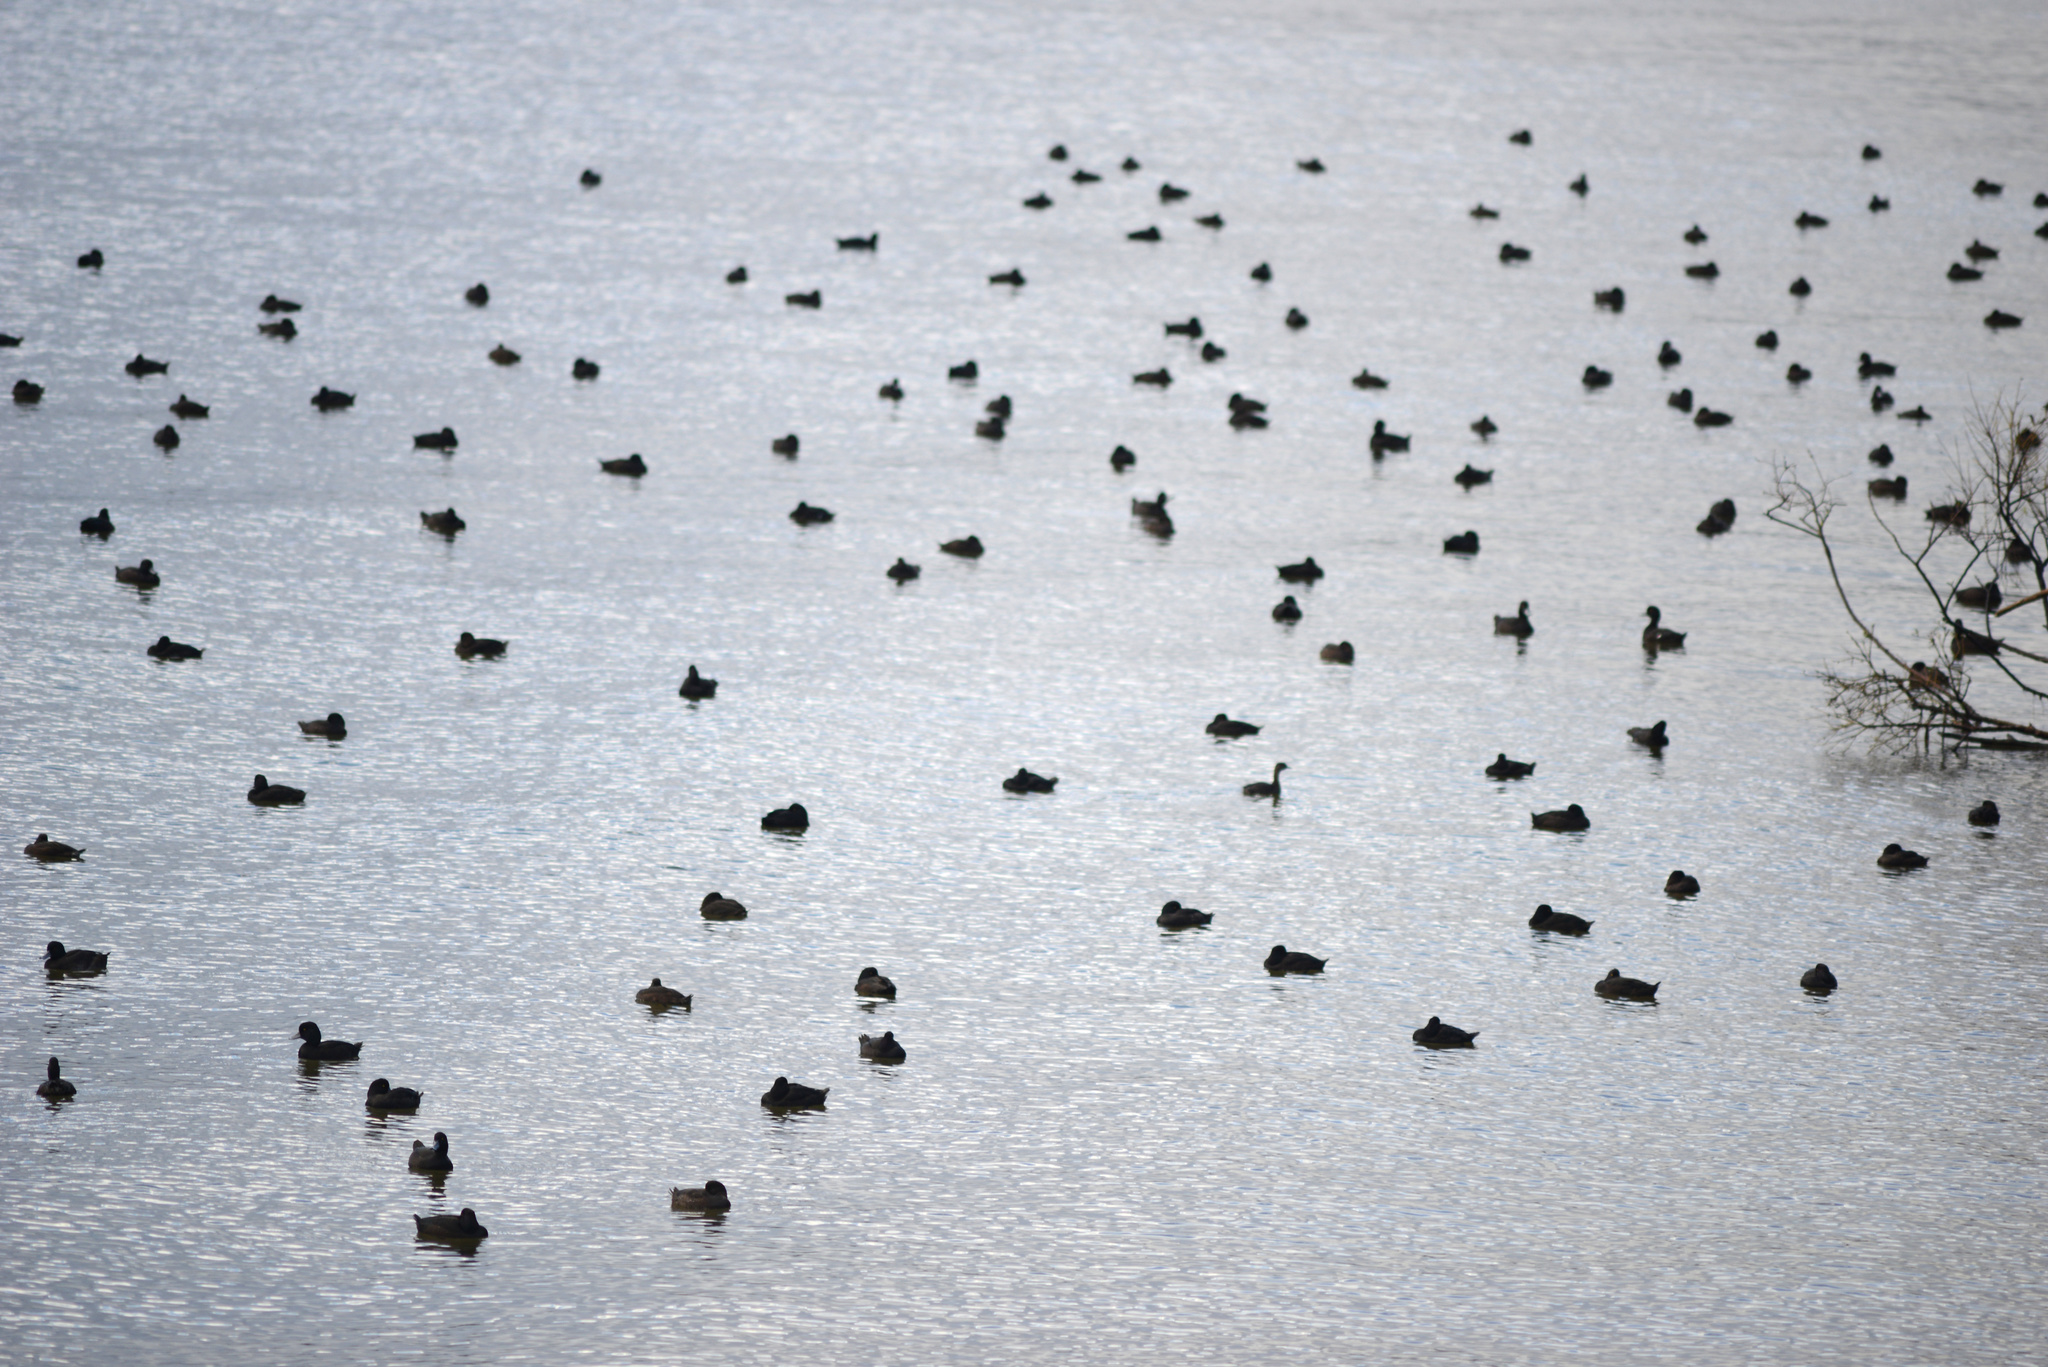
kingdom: Animalia
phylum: Chordata
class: Aves
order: Anseriformes
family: Anatidae
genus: Aythya
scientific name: Aythya novaeseelandiae
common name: New zealand scaup
